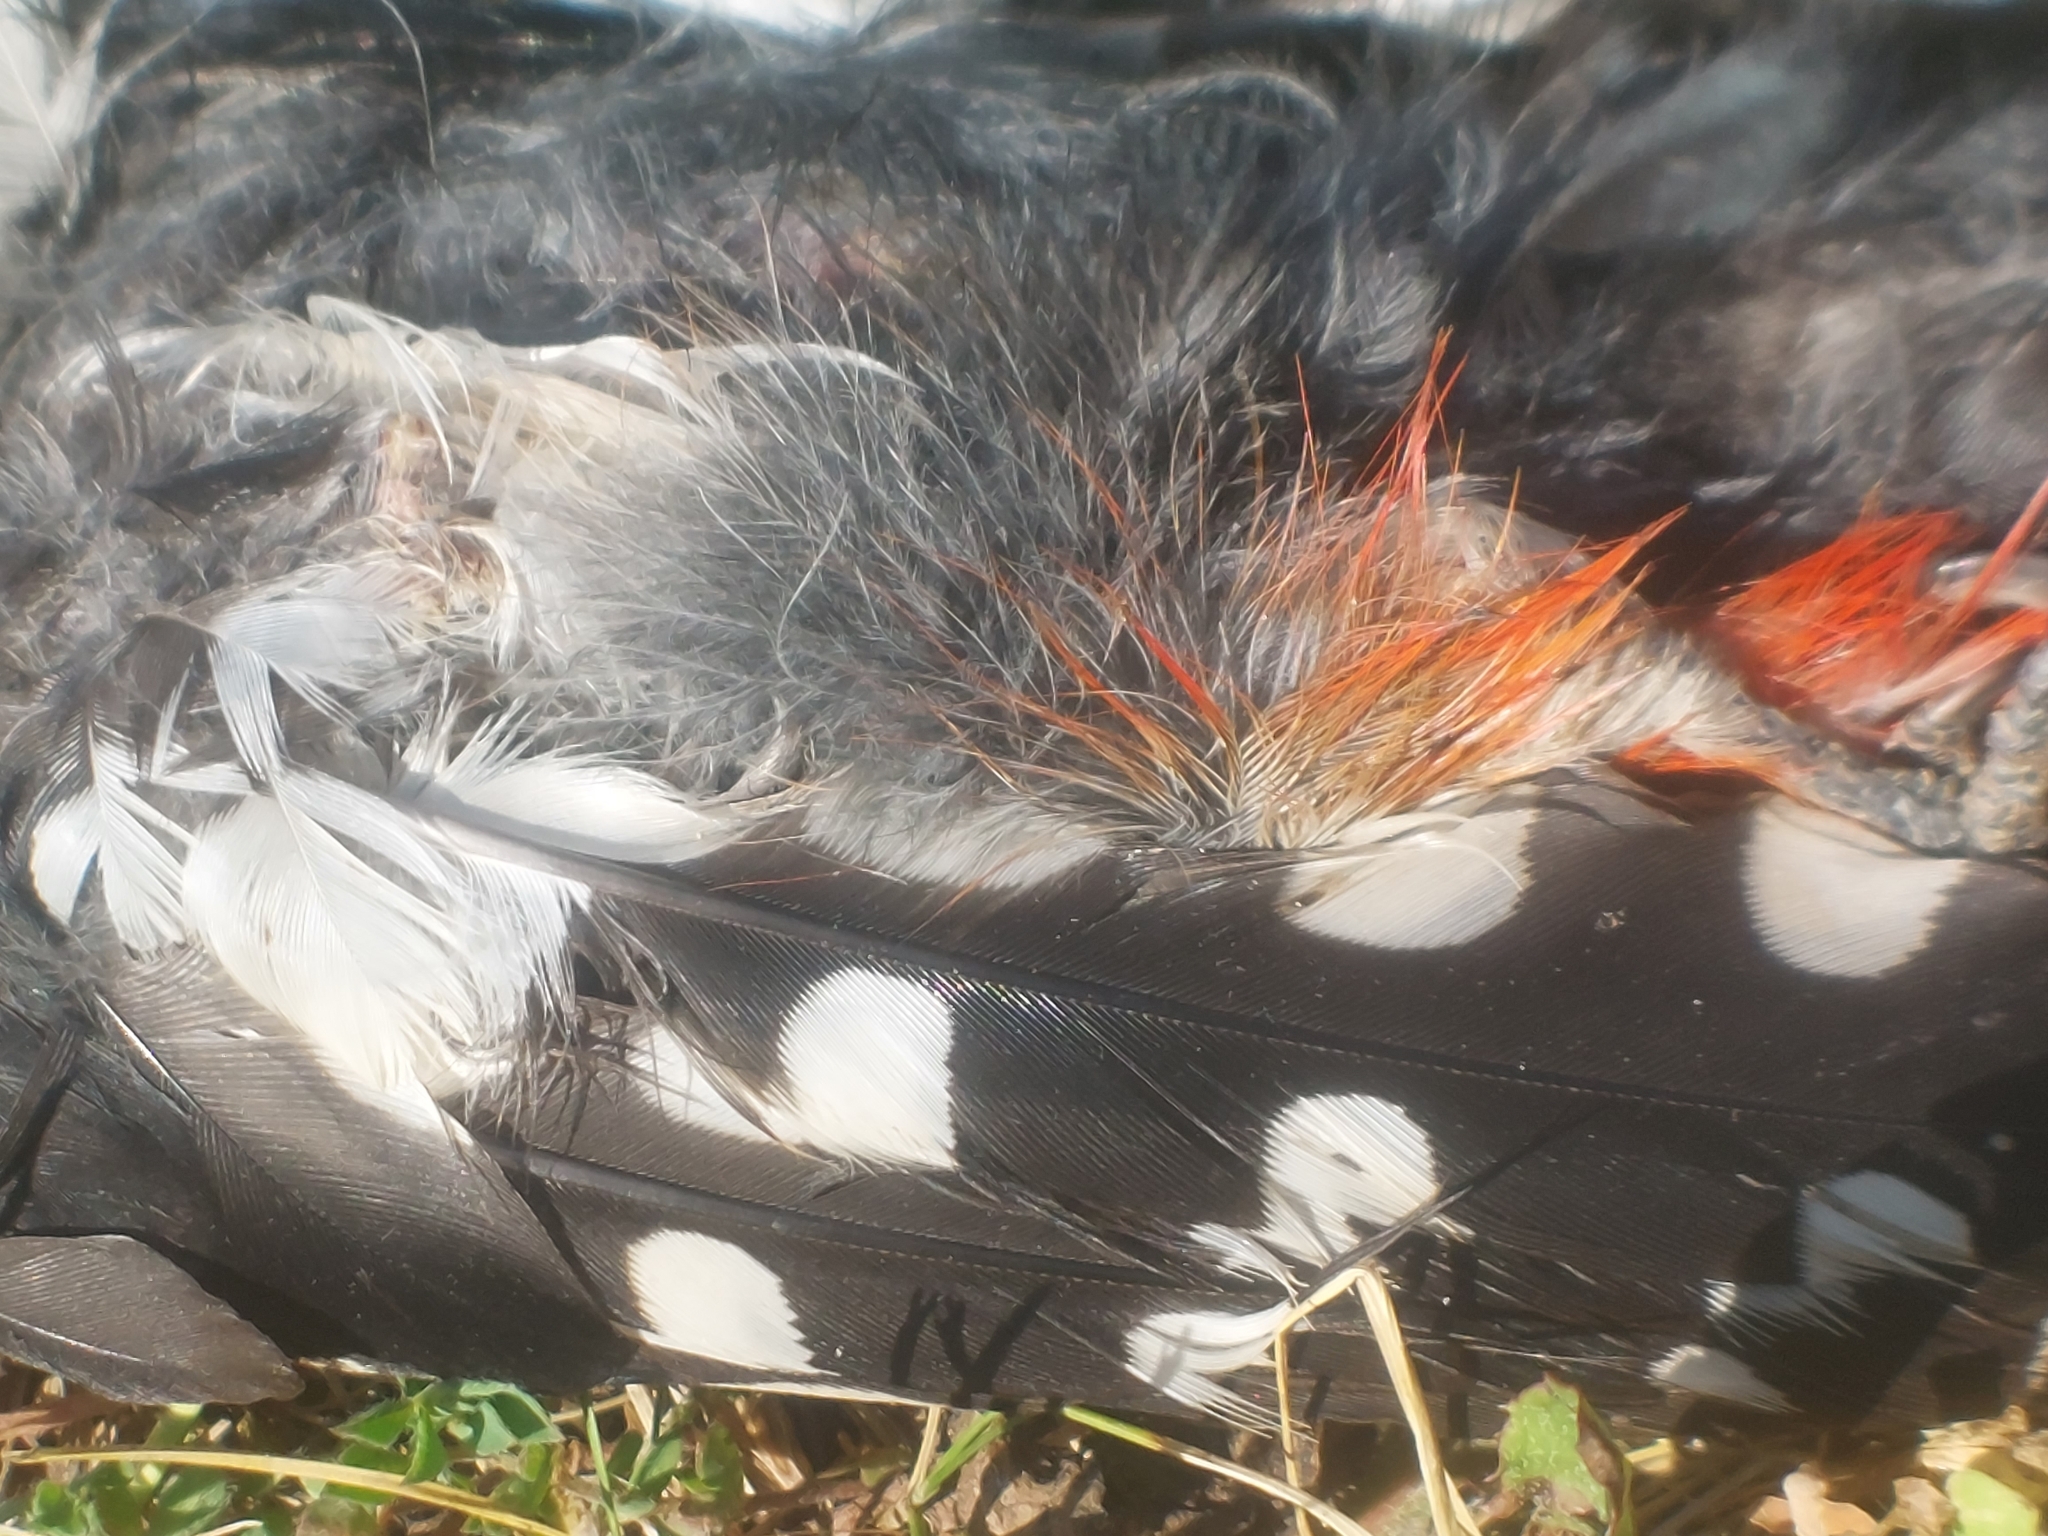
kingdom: Animalia
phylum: Chordata
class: Aves
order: Piciformes
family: Picidae
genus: Dendrocopos
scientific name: Dendrocopos major
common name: Great spotted woodpecker
